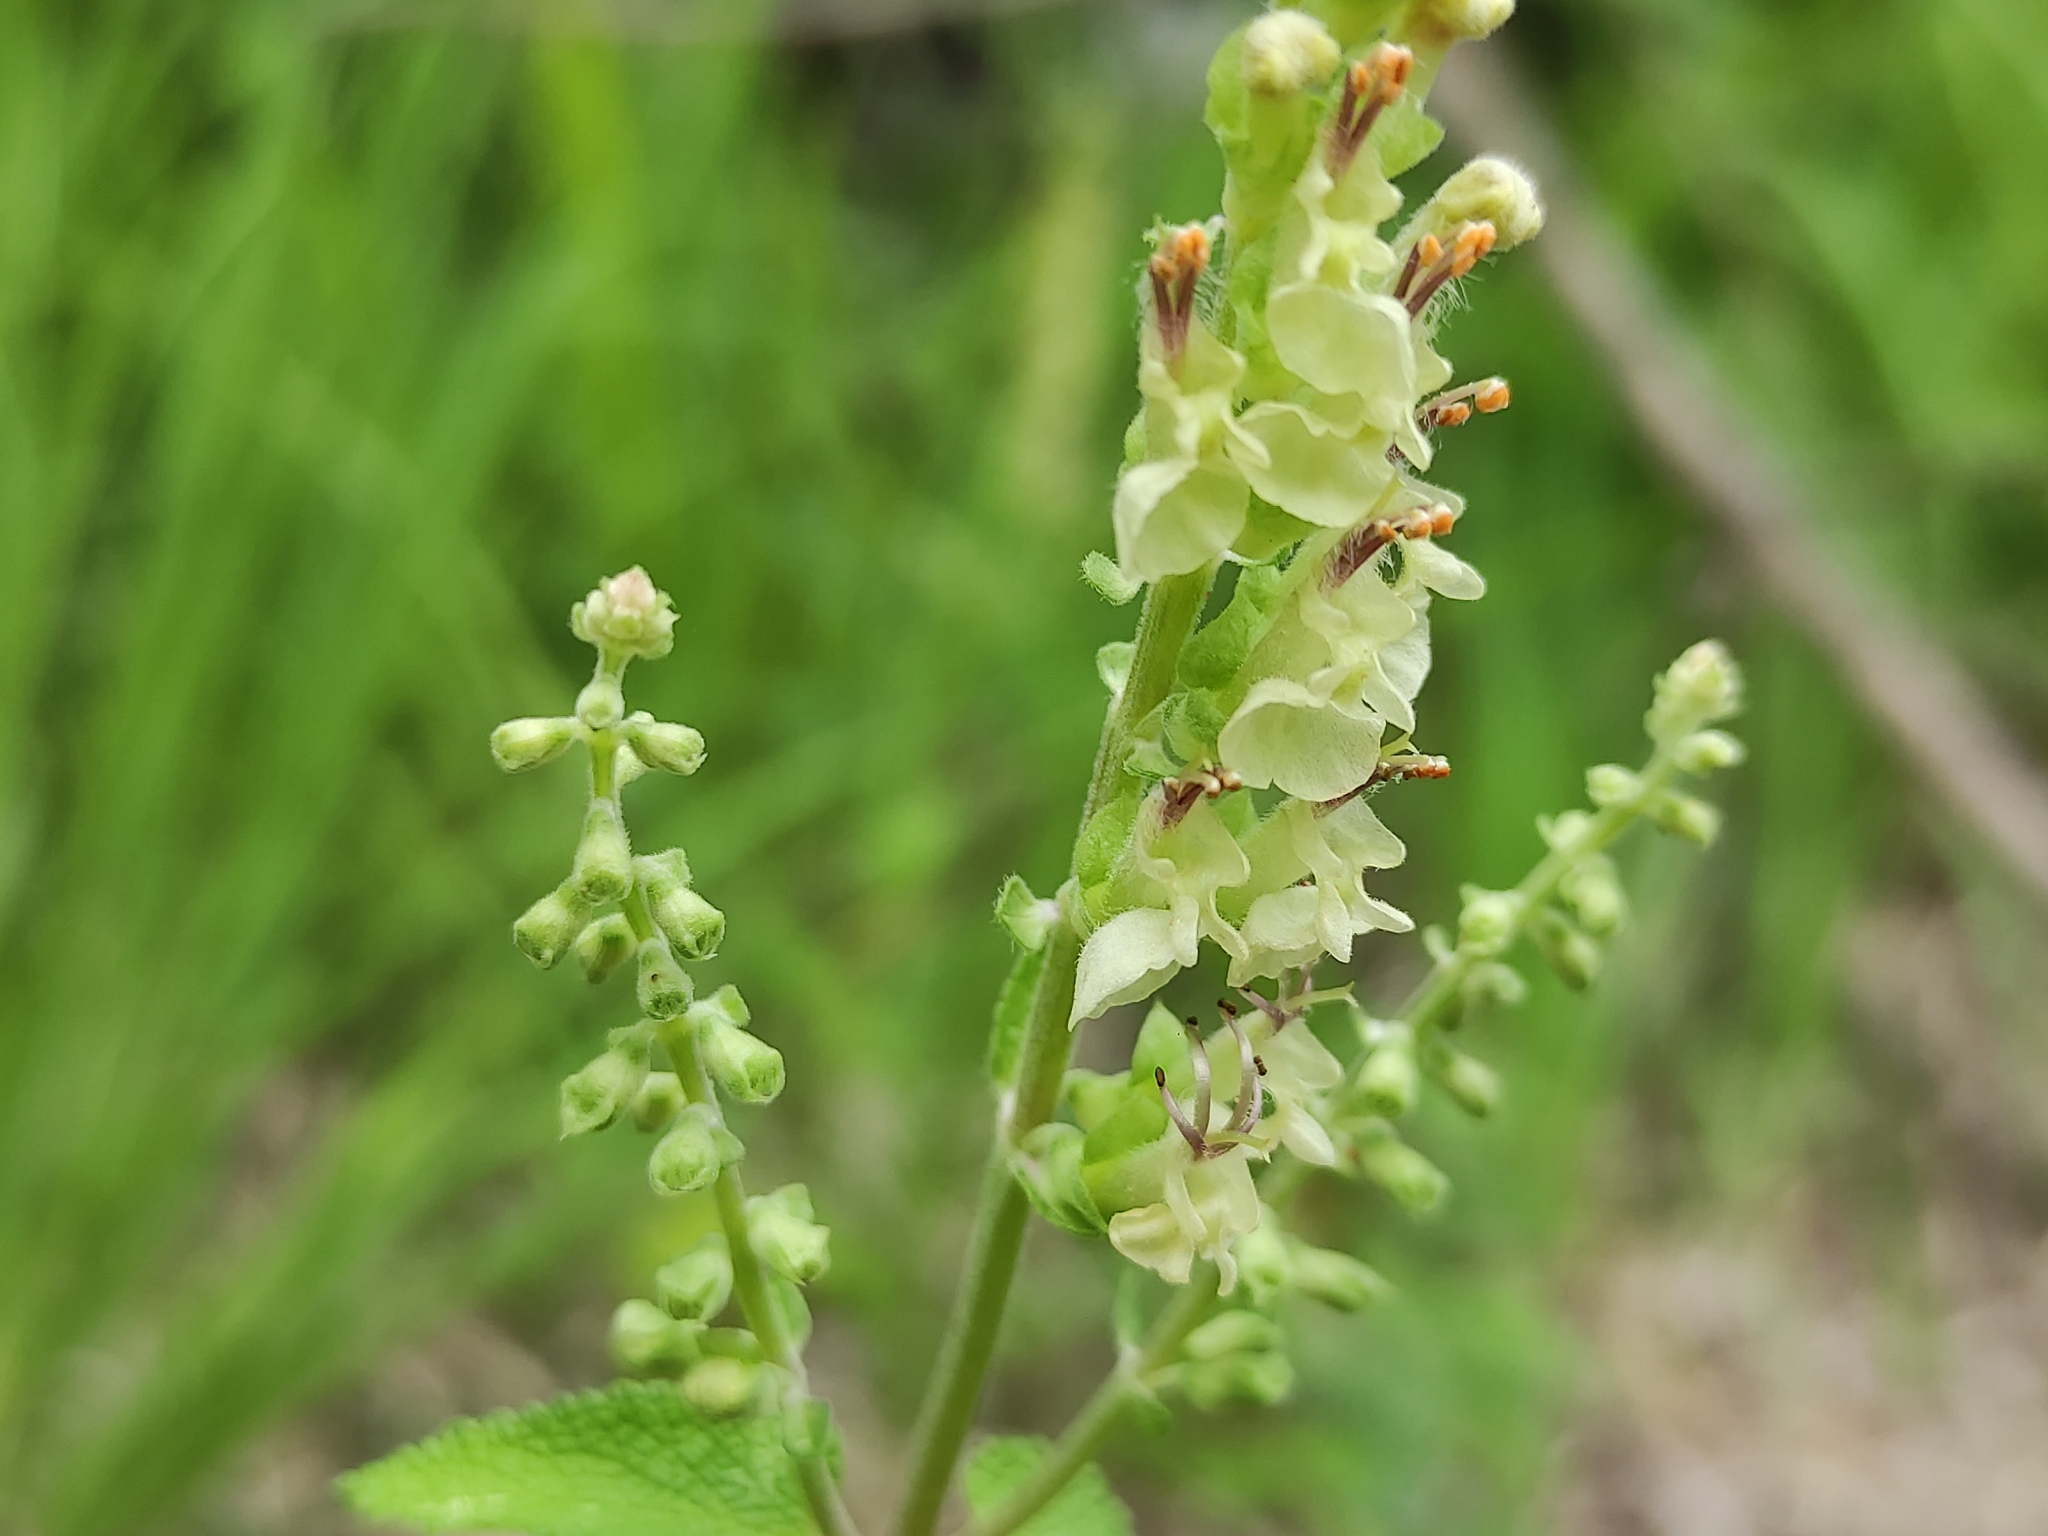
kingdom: Plantae
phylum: Tracheophyta
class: Magnoliopsida
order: Lamiales
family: Lamiaceae
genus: Teucrium
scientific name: Teucrium scorodonia
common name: Woodland germander
